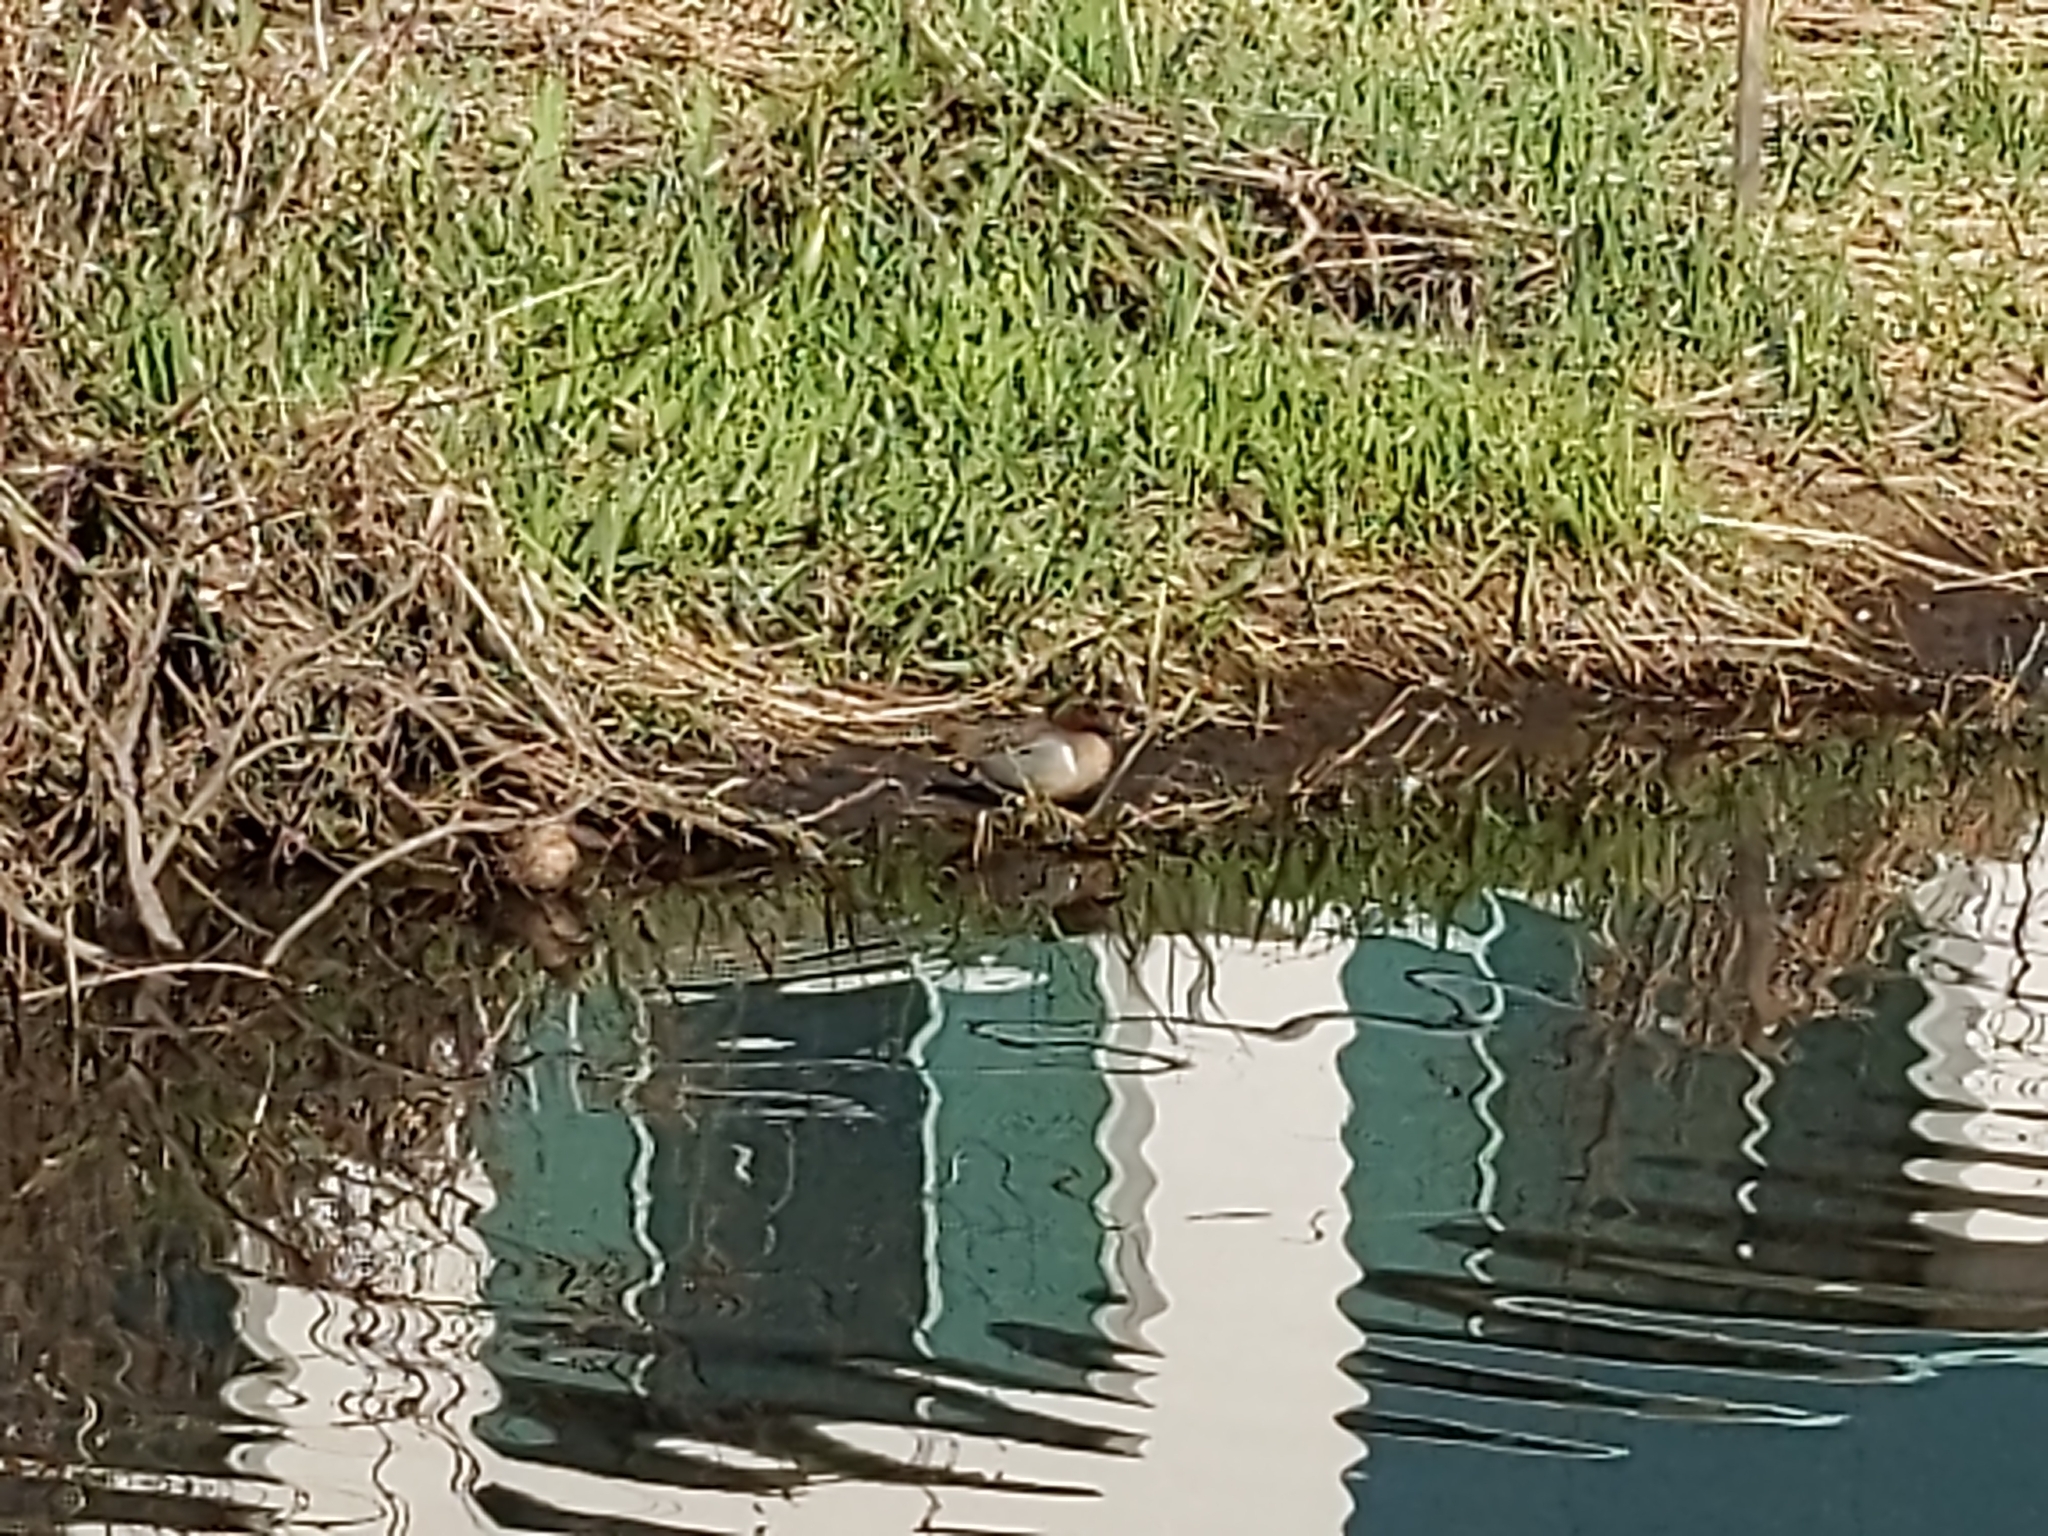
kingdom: Animalia
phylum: Chordata
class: Aves
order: Anseriformes
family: Anatidae
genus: Anas
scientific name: Anas crecca
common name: Eurasian teal
